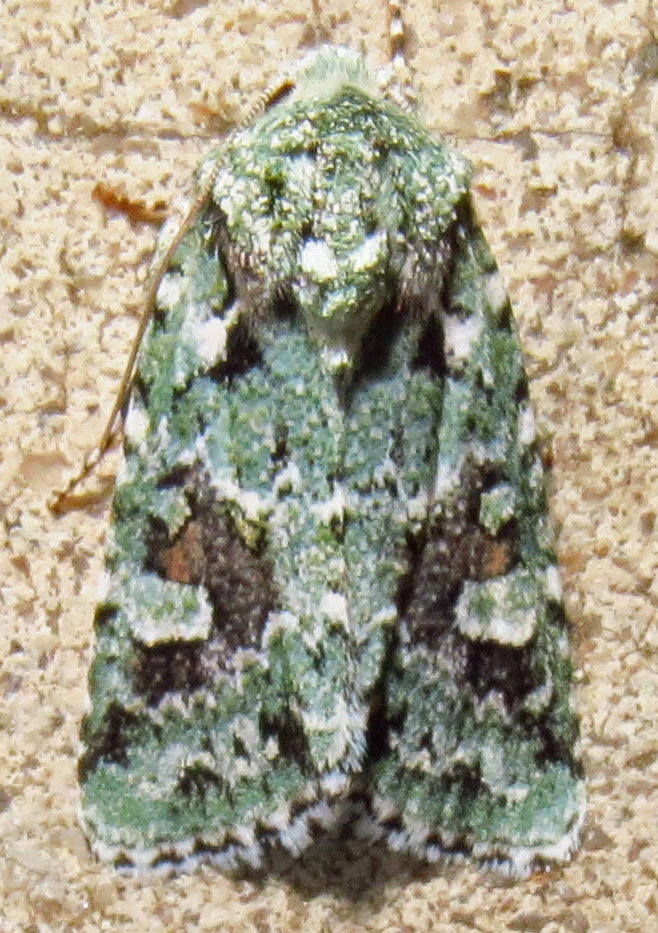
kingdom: Animalia
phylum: Arthropoda
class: Insecta
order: Lepidoptera
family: Noctuidae
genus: Lacinipolia
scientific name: Lacinipolia laudabilis
